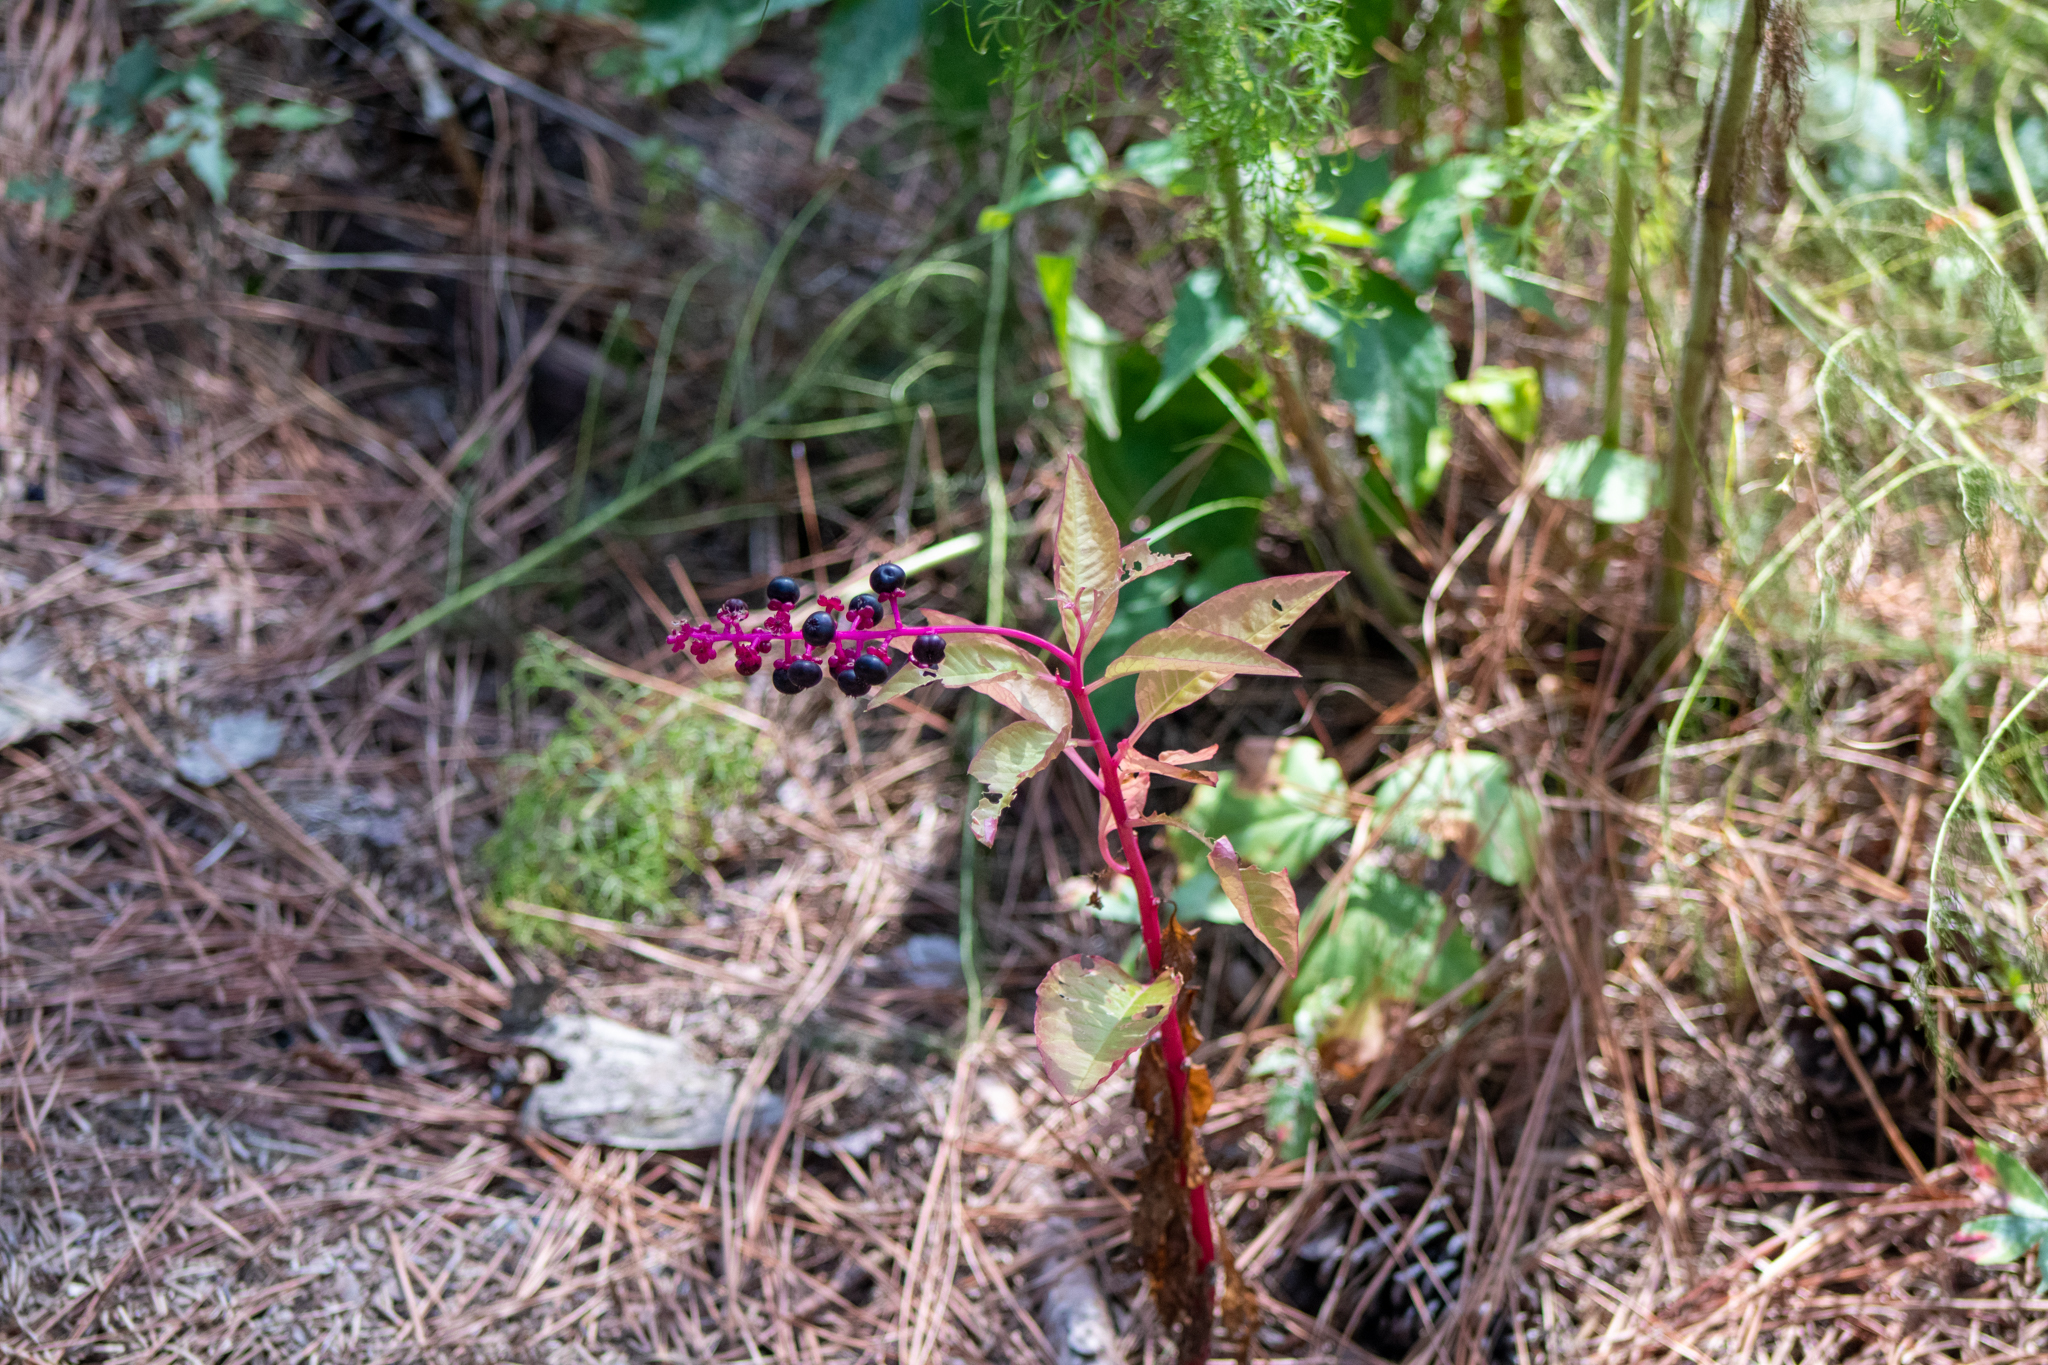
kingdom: Plantae
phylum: Tracheophyta
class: Magnoliopsida
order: Caryophyllales
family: Phytolaccaceae
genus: Phytolacca
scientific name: Phytolacca americana
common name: American pokeweed
